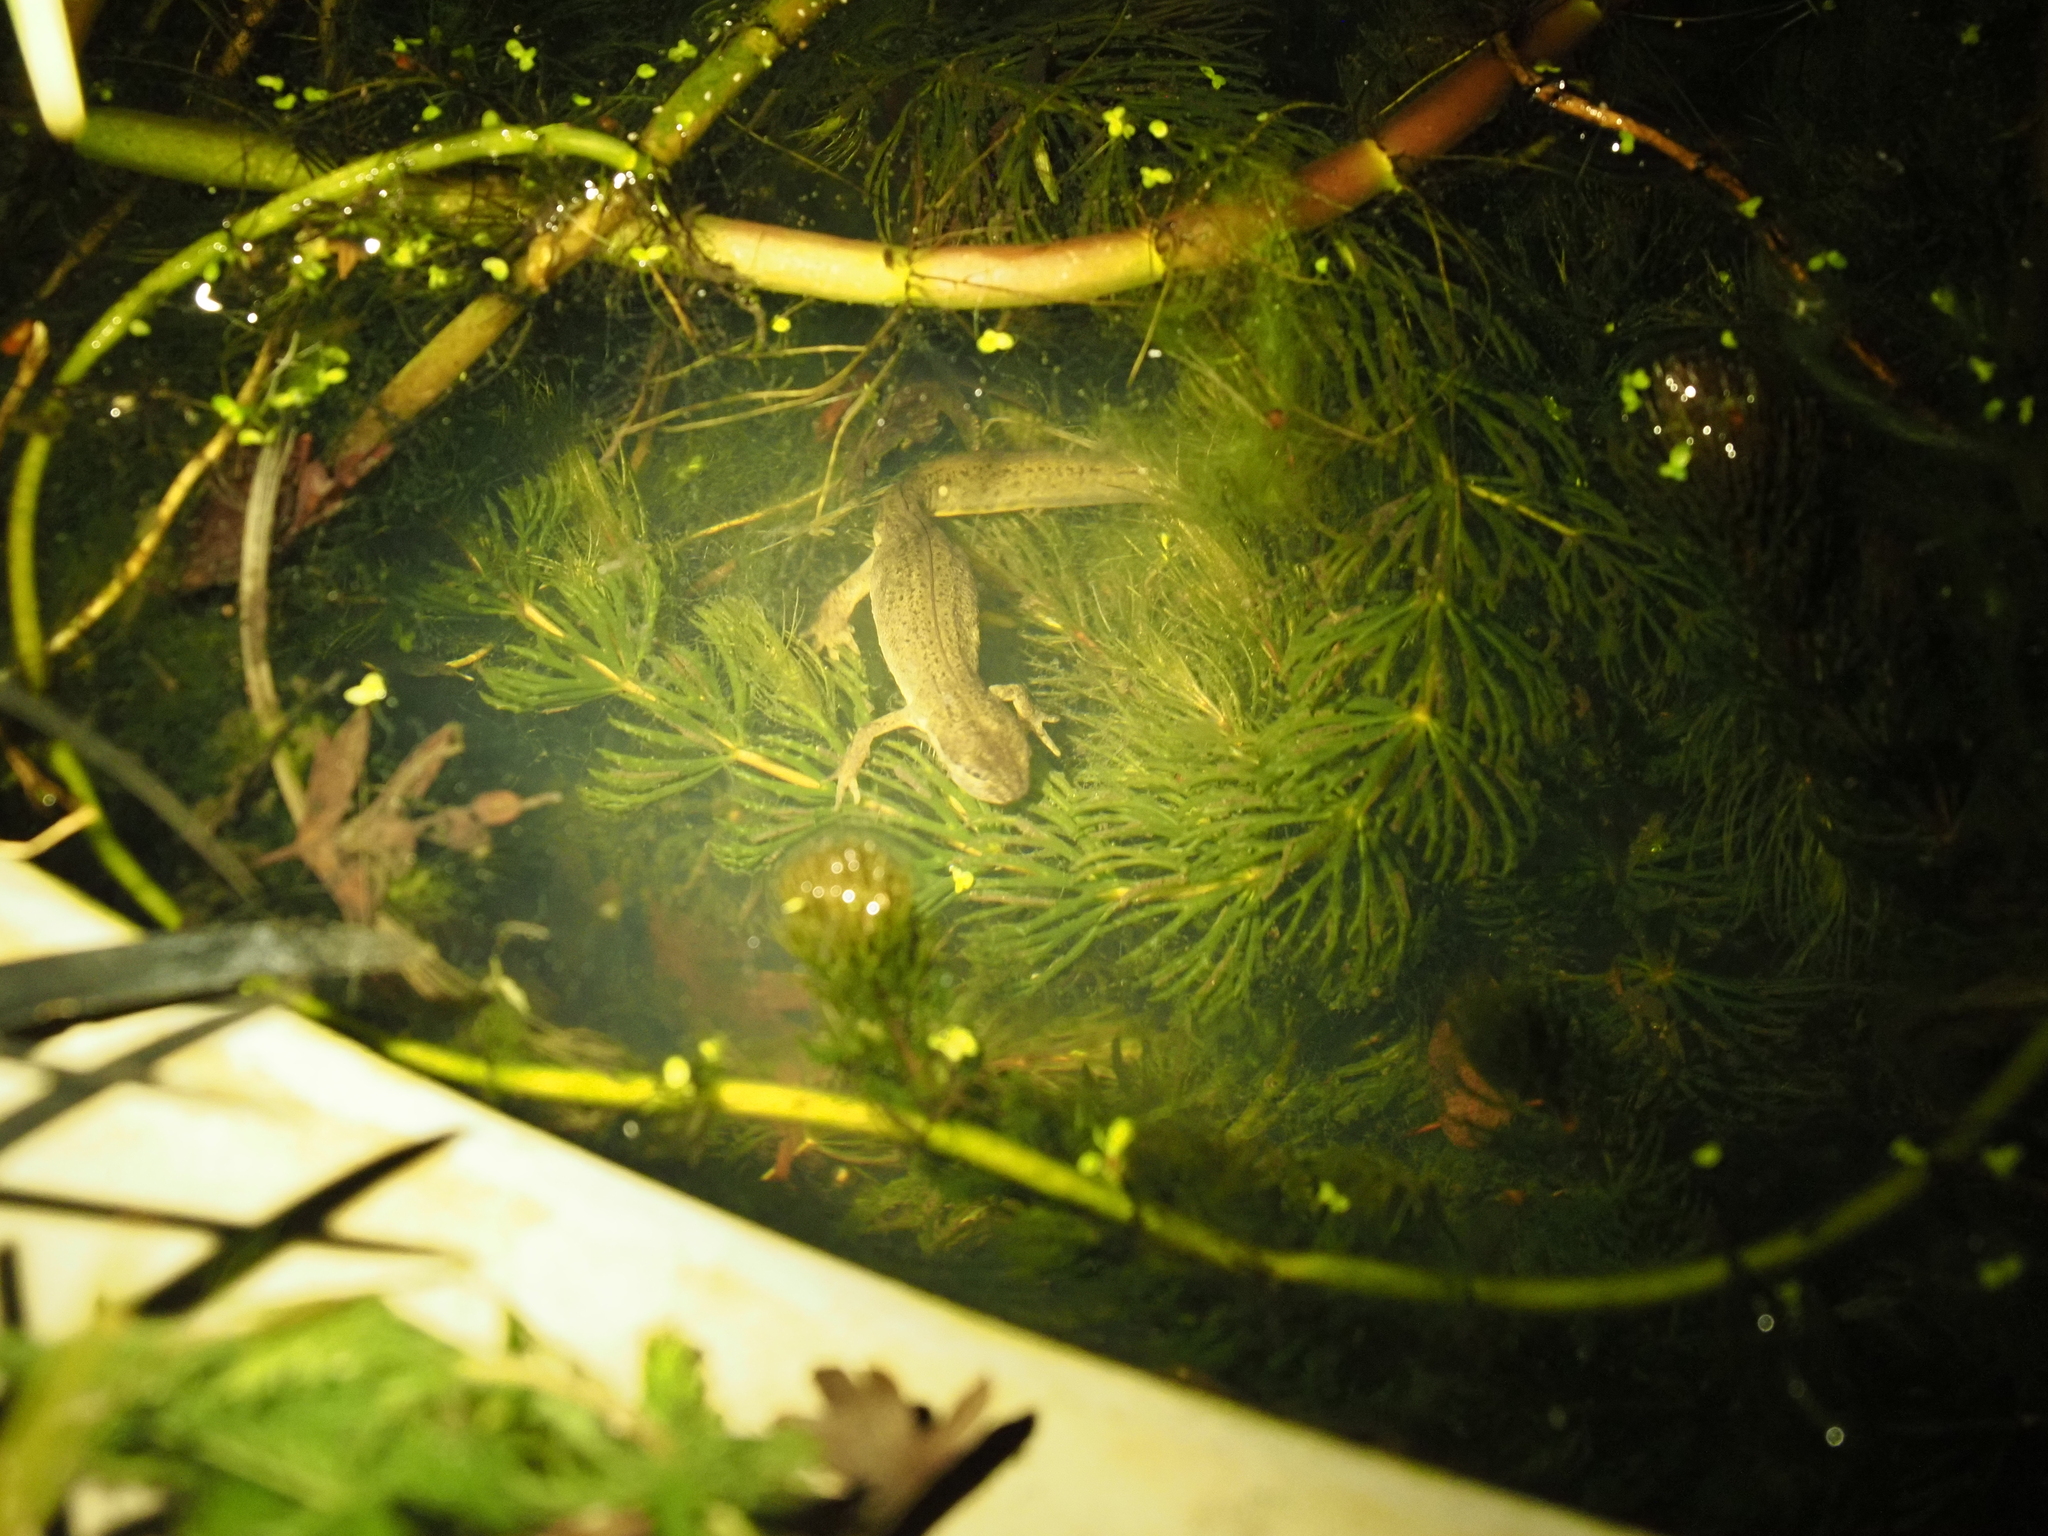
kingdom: Animalia
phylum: Chordata
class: Amphibia
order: Caudata
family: Salamandridae
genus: Lissotriton
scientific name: Lissotriton vulgaris
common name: Smooth newt
